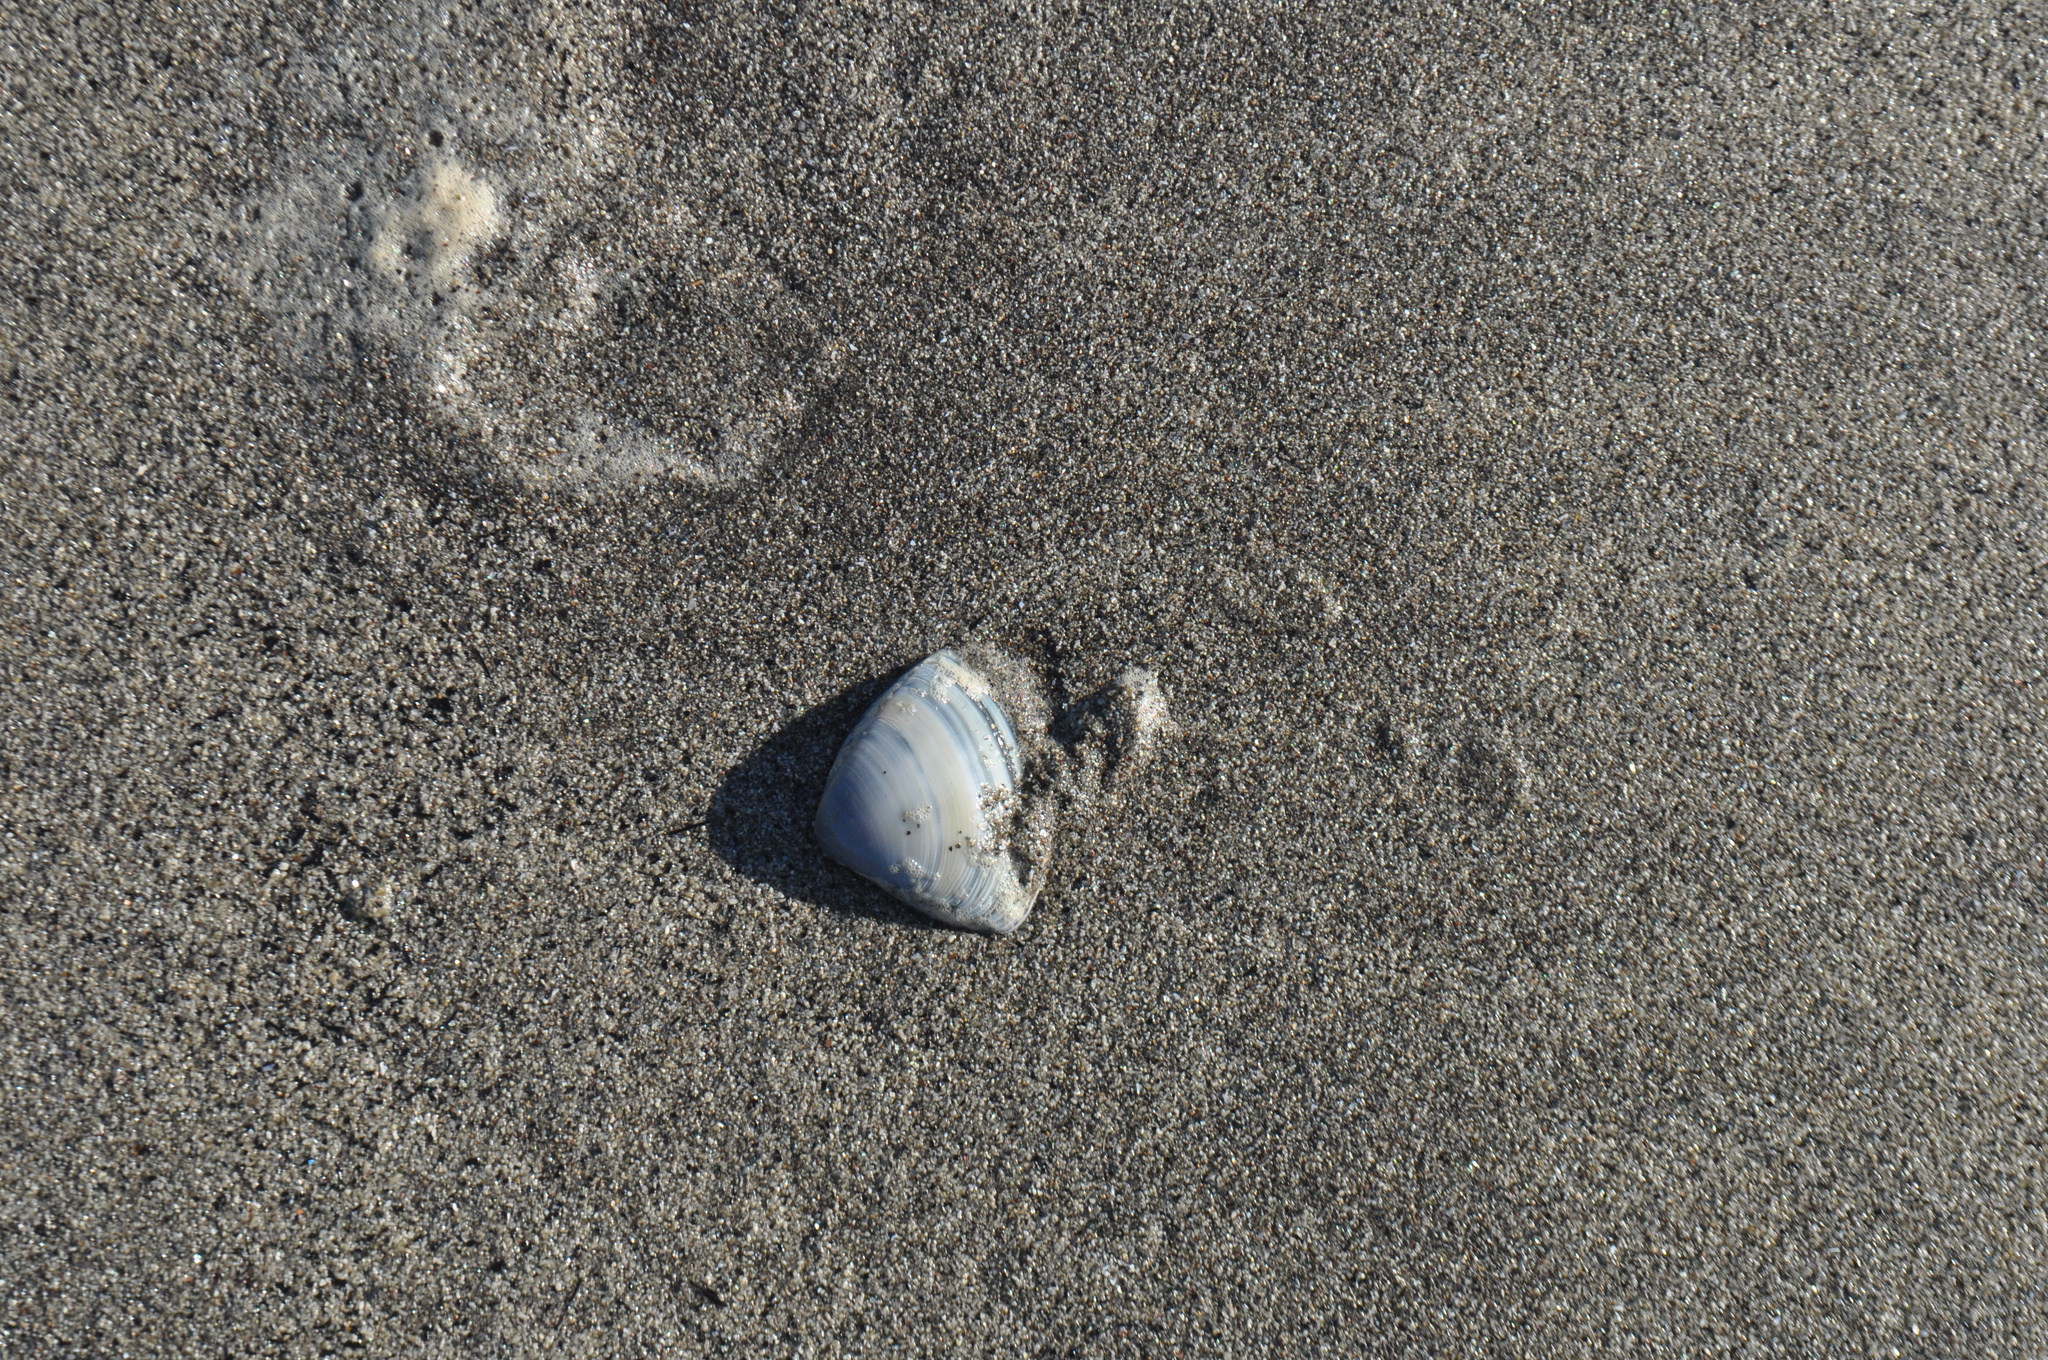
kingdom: Animalia
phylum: Mollusca
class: Bivalvia
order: Venerida
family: Mactridae
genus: Crassula
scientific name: Crassula aequilatera
